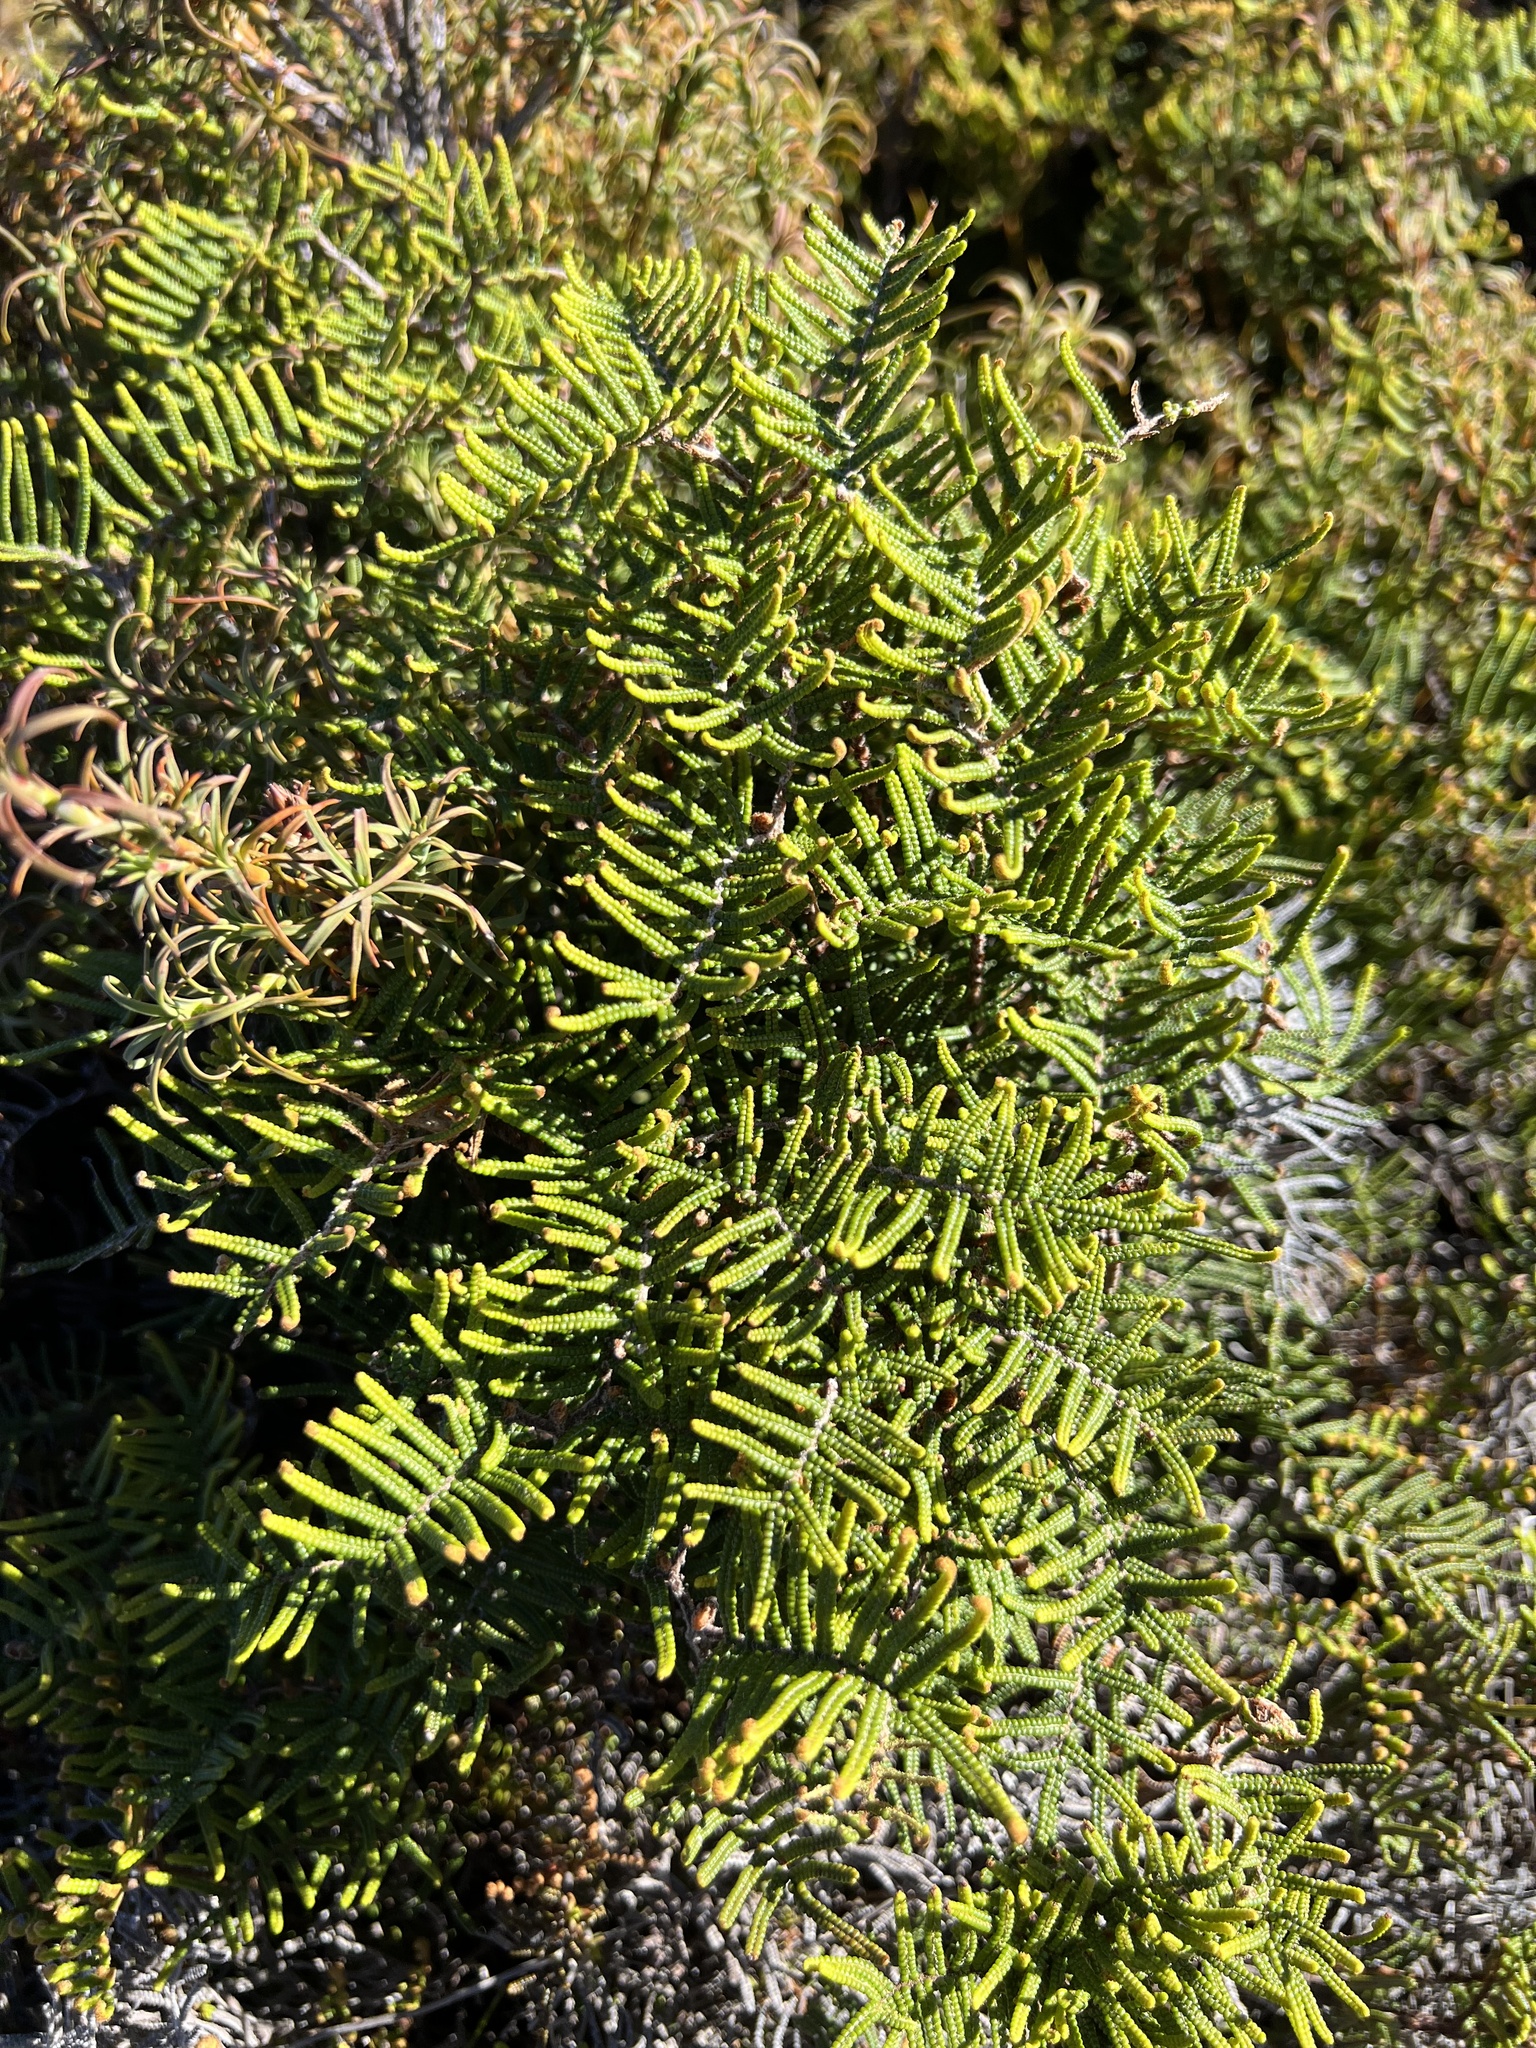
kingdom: Plantae
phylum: Tracheophyta
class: Polypodiopsida
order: Gleicheniales
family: Gleicheniaceae
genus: Gleichenia
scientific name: Gleichenia alpina
